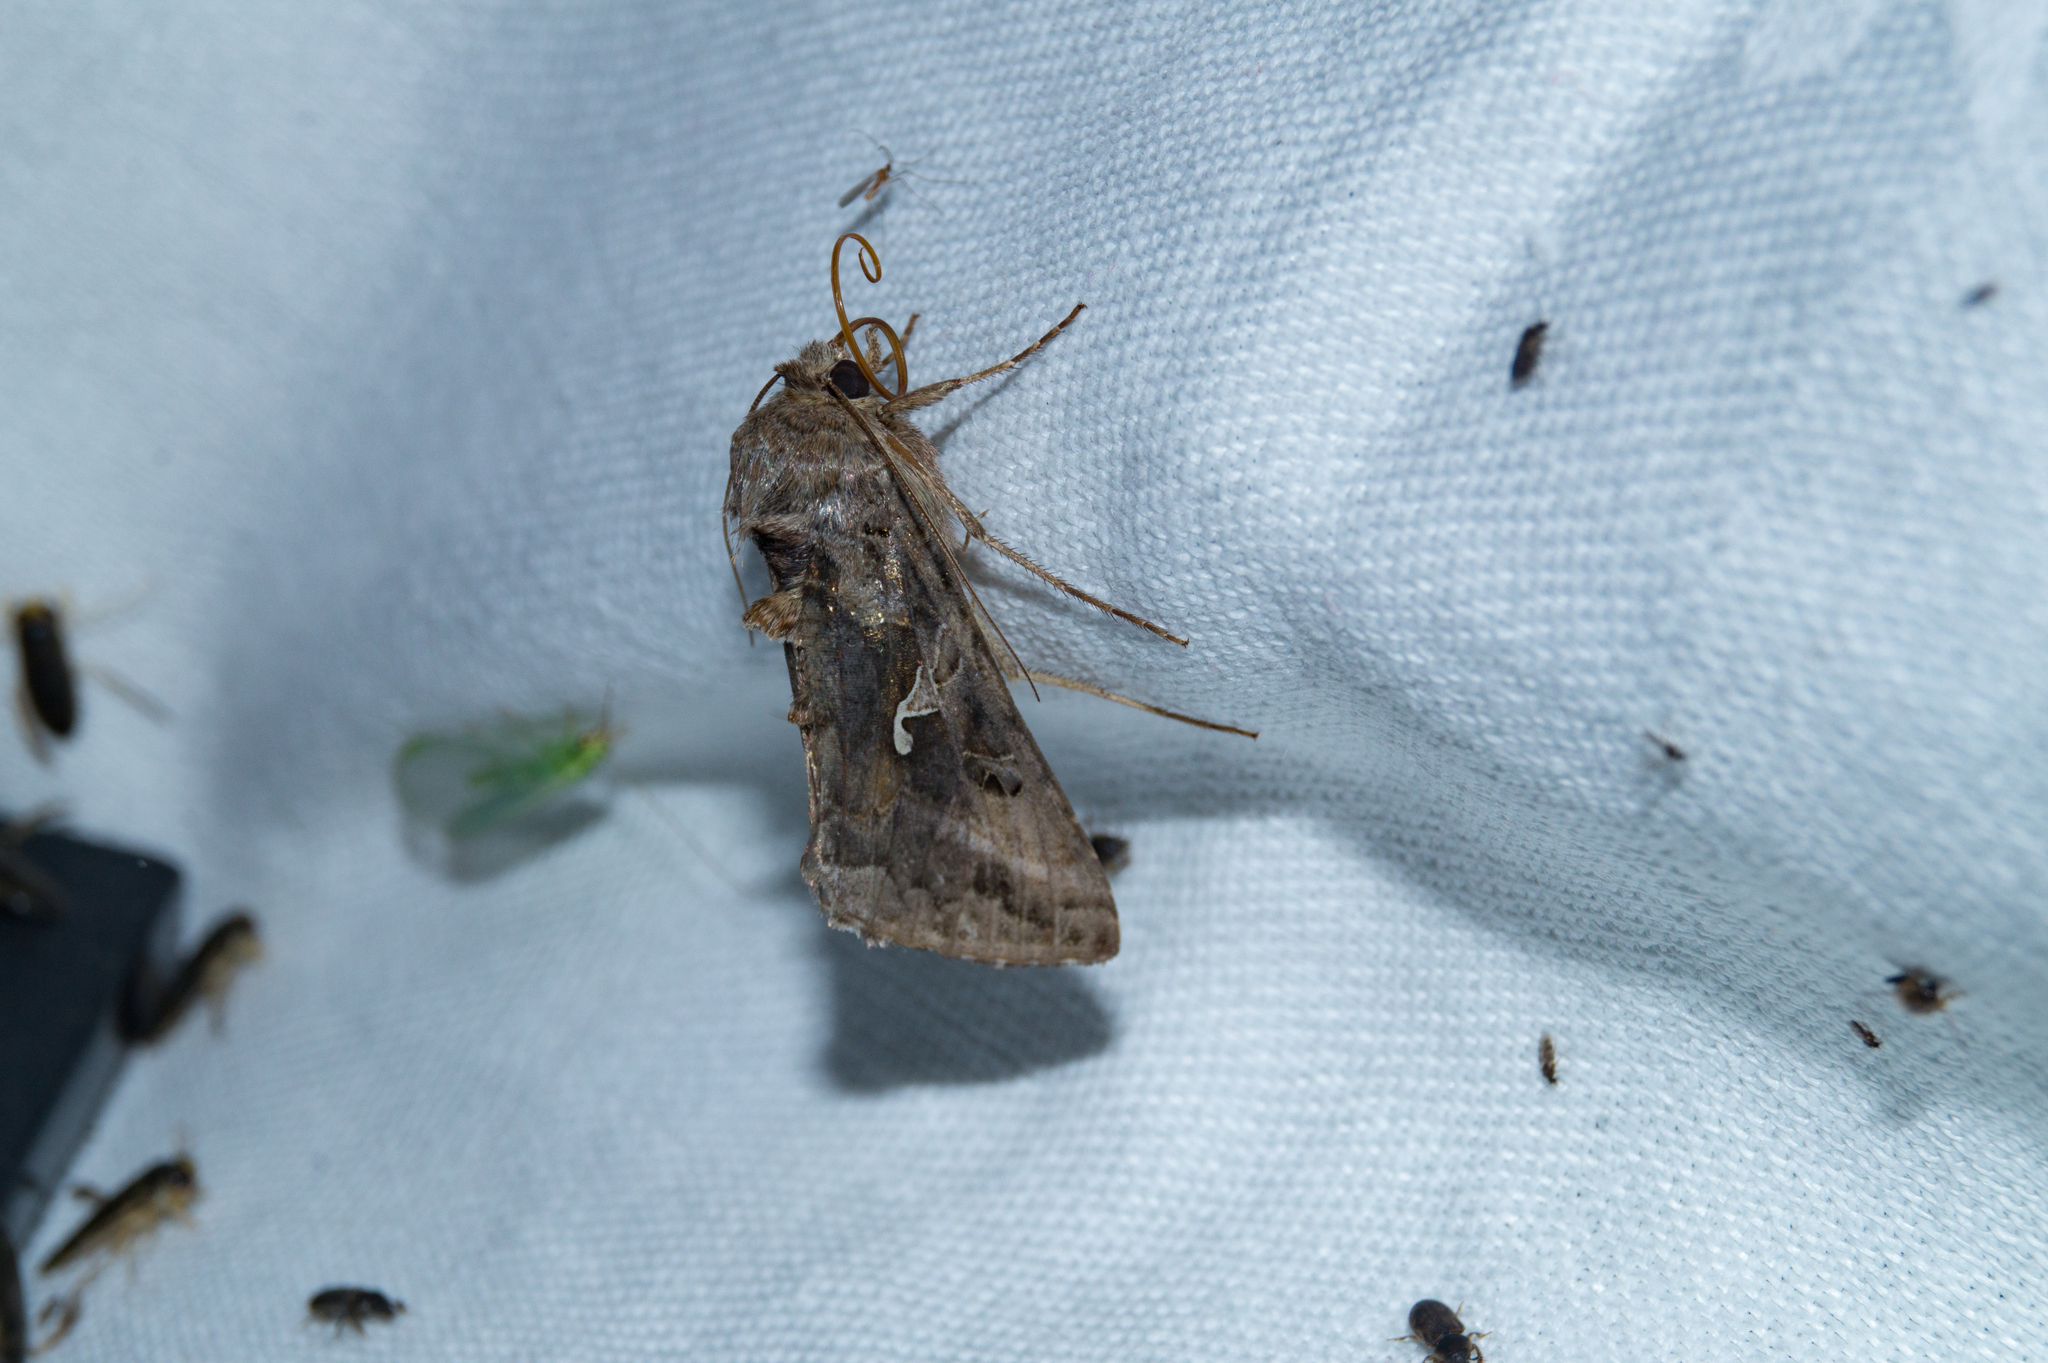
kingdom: Animalia
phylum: Arthropoda
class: Insecta
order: Lepidoptera
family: Noctuidae
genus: Autographa
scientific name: Autographa gamma
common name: Silver y
